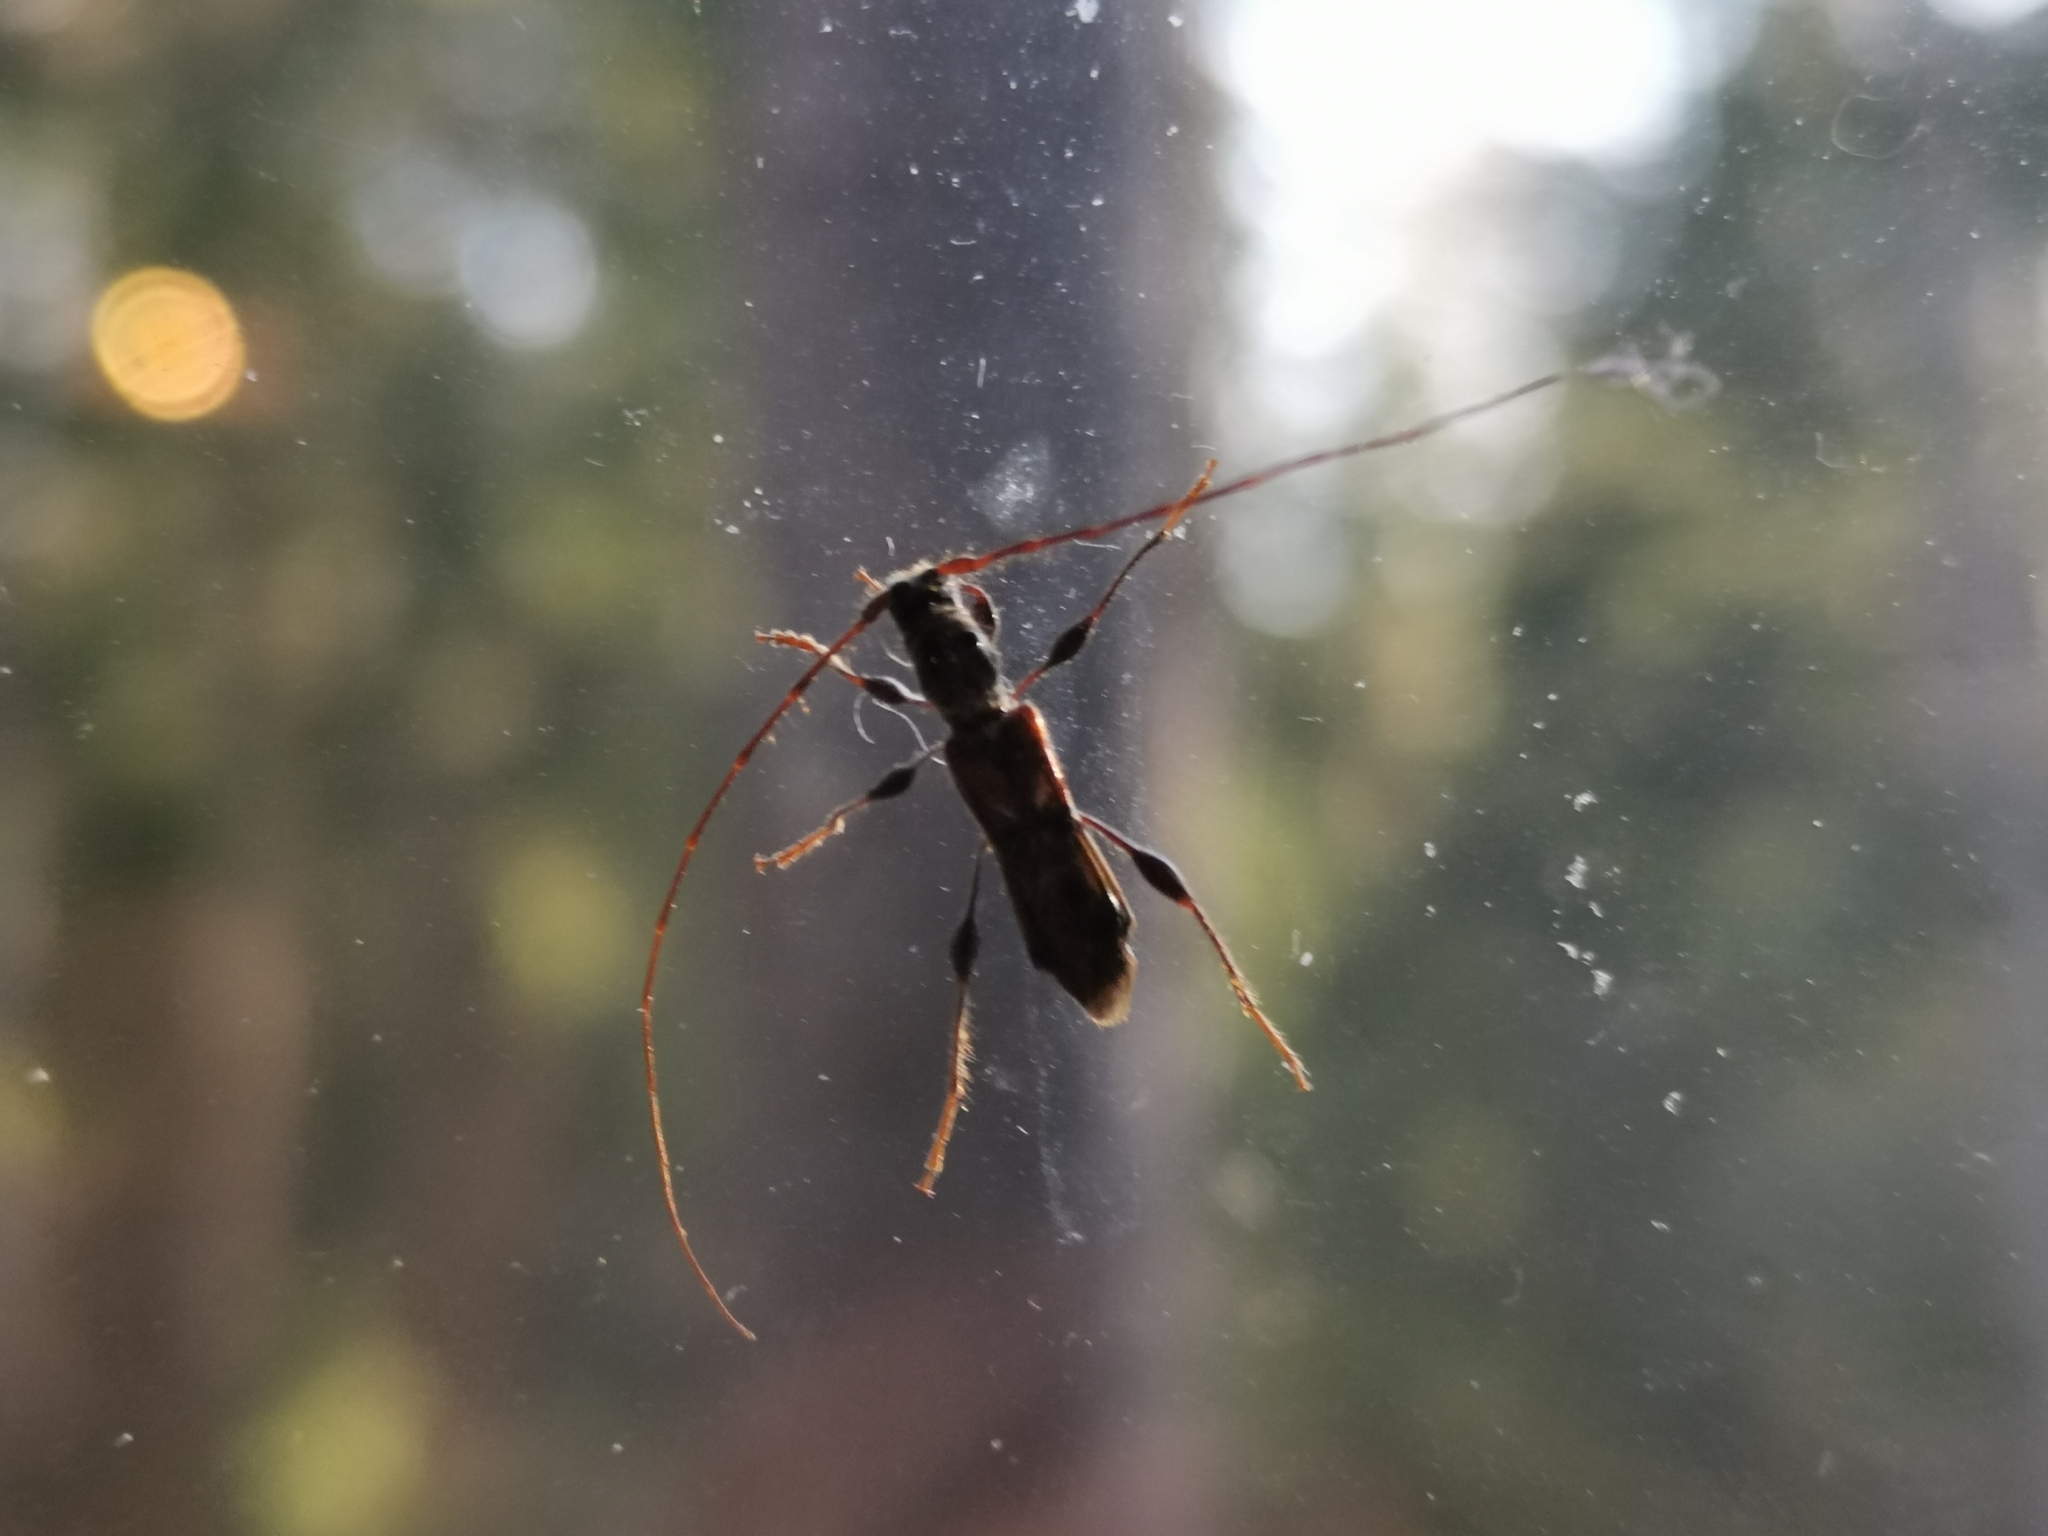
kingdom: Animalia
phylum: Arthropoda
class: Insecta
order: Coleoptera
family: Cerambycidae
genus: Molorchus
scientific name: Molorchus minor
